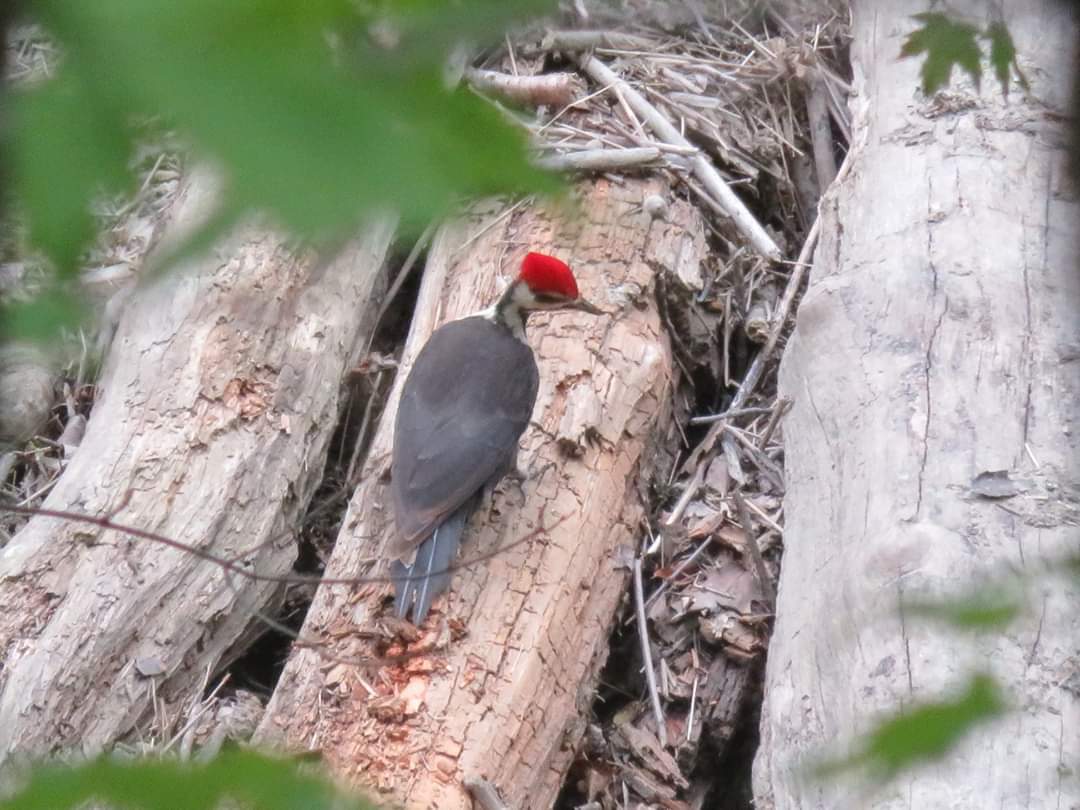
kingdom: Animalia
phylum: Chordata
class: Aves
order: Piciformes
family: Picidae
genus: Dryocopus
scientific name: Dryocopus pileatus
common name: Pileated woodpecker
